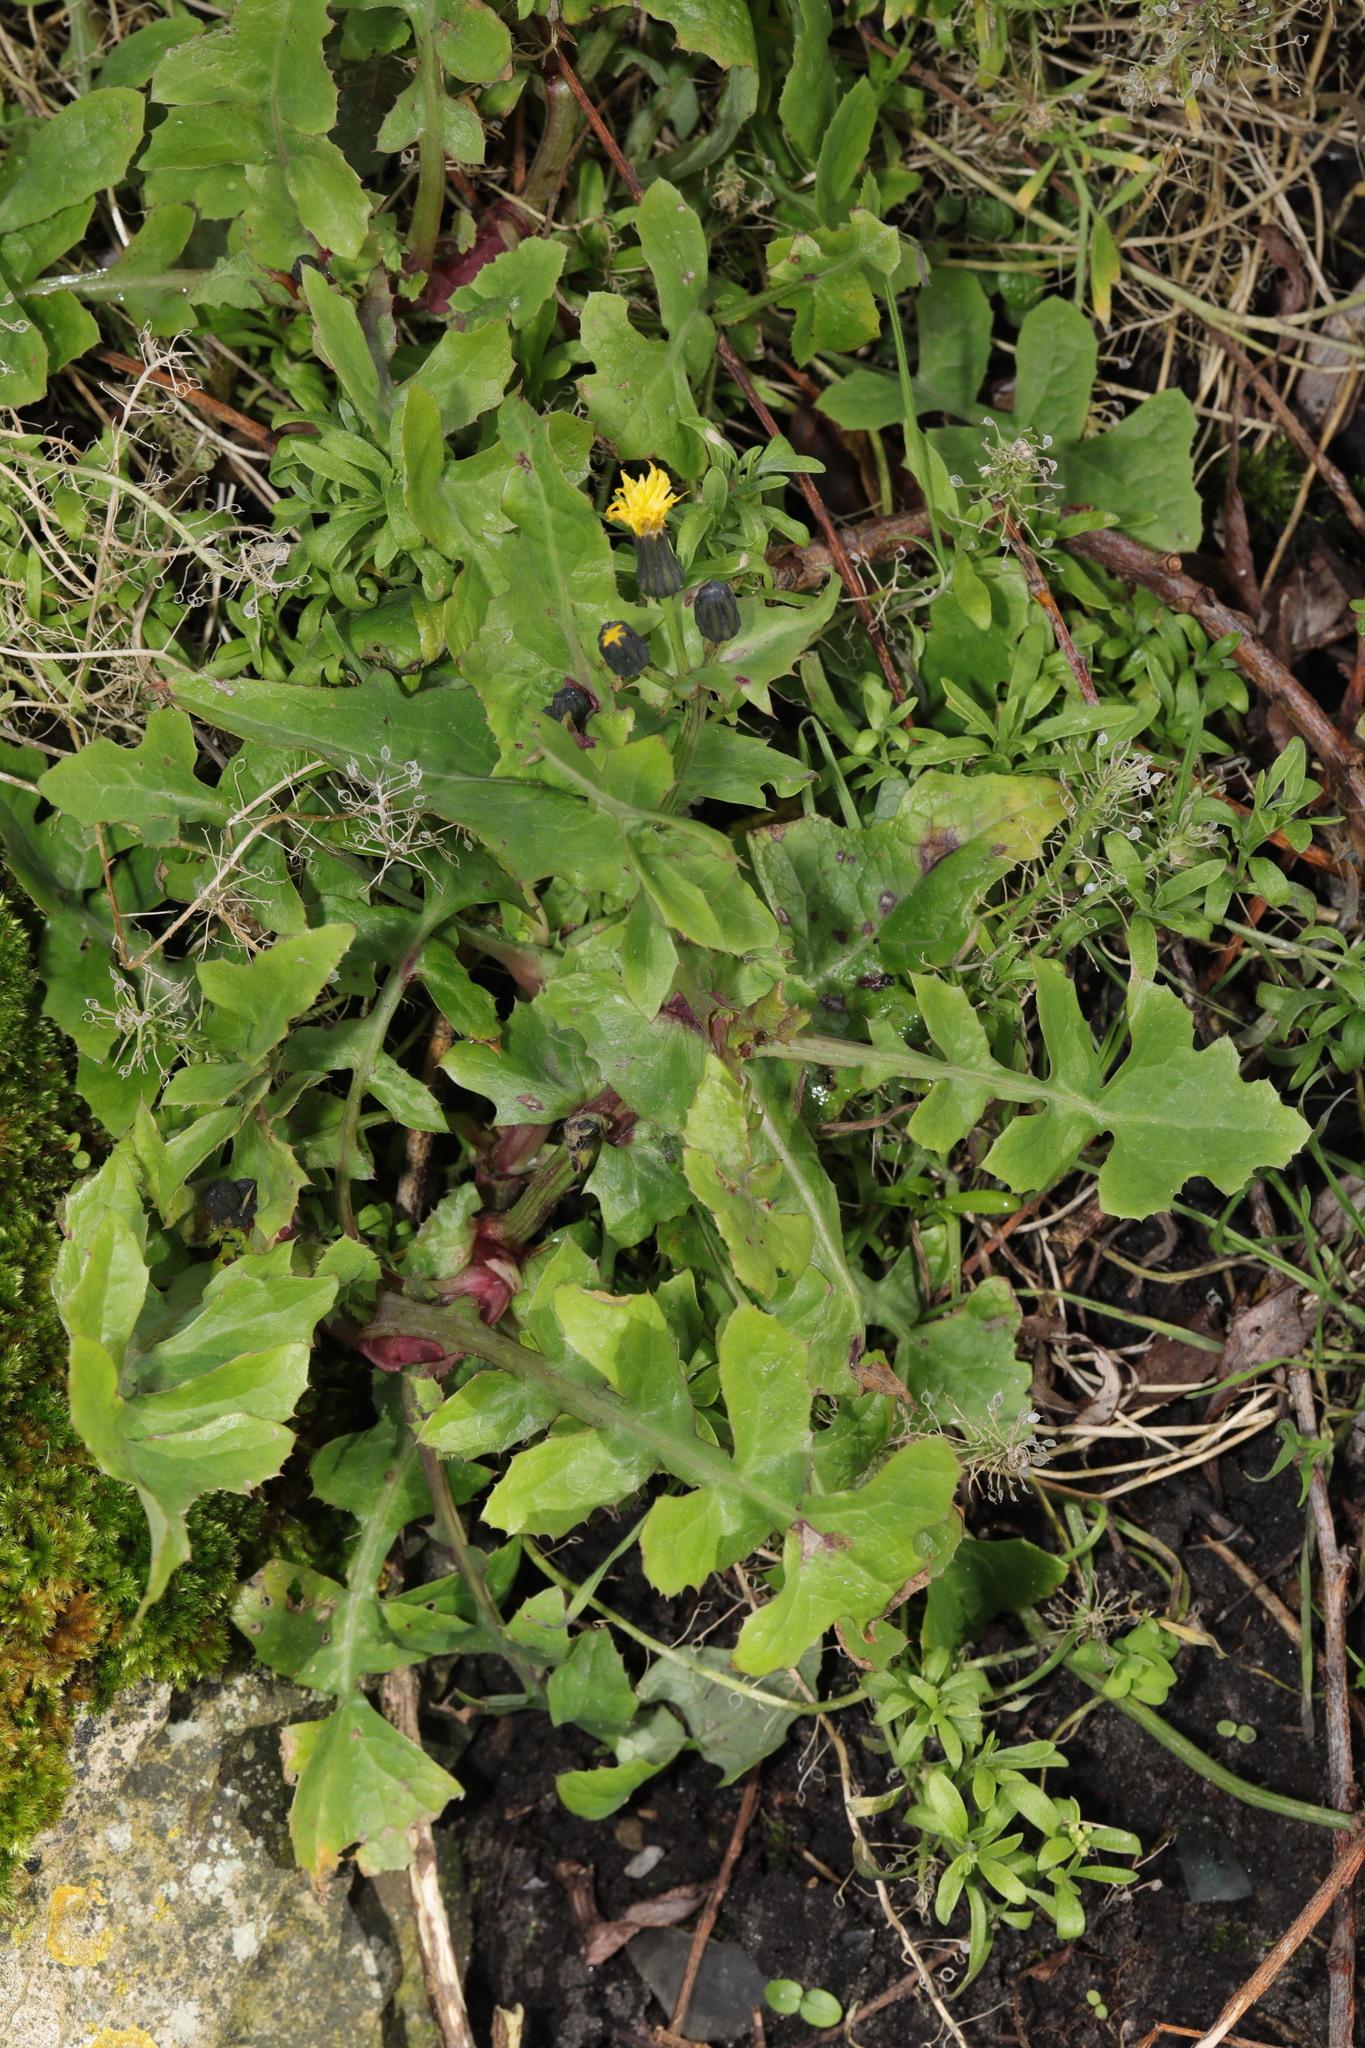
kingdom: Plantae
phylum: Tracheophyta
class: Magnoliopsida
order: Asterales
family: Asteraceae
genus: Sonchus
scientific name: Sonchus oleraceus
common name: Common sowthistle
